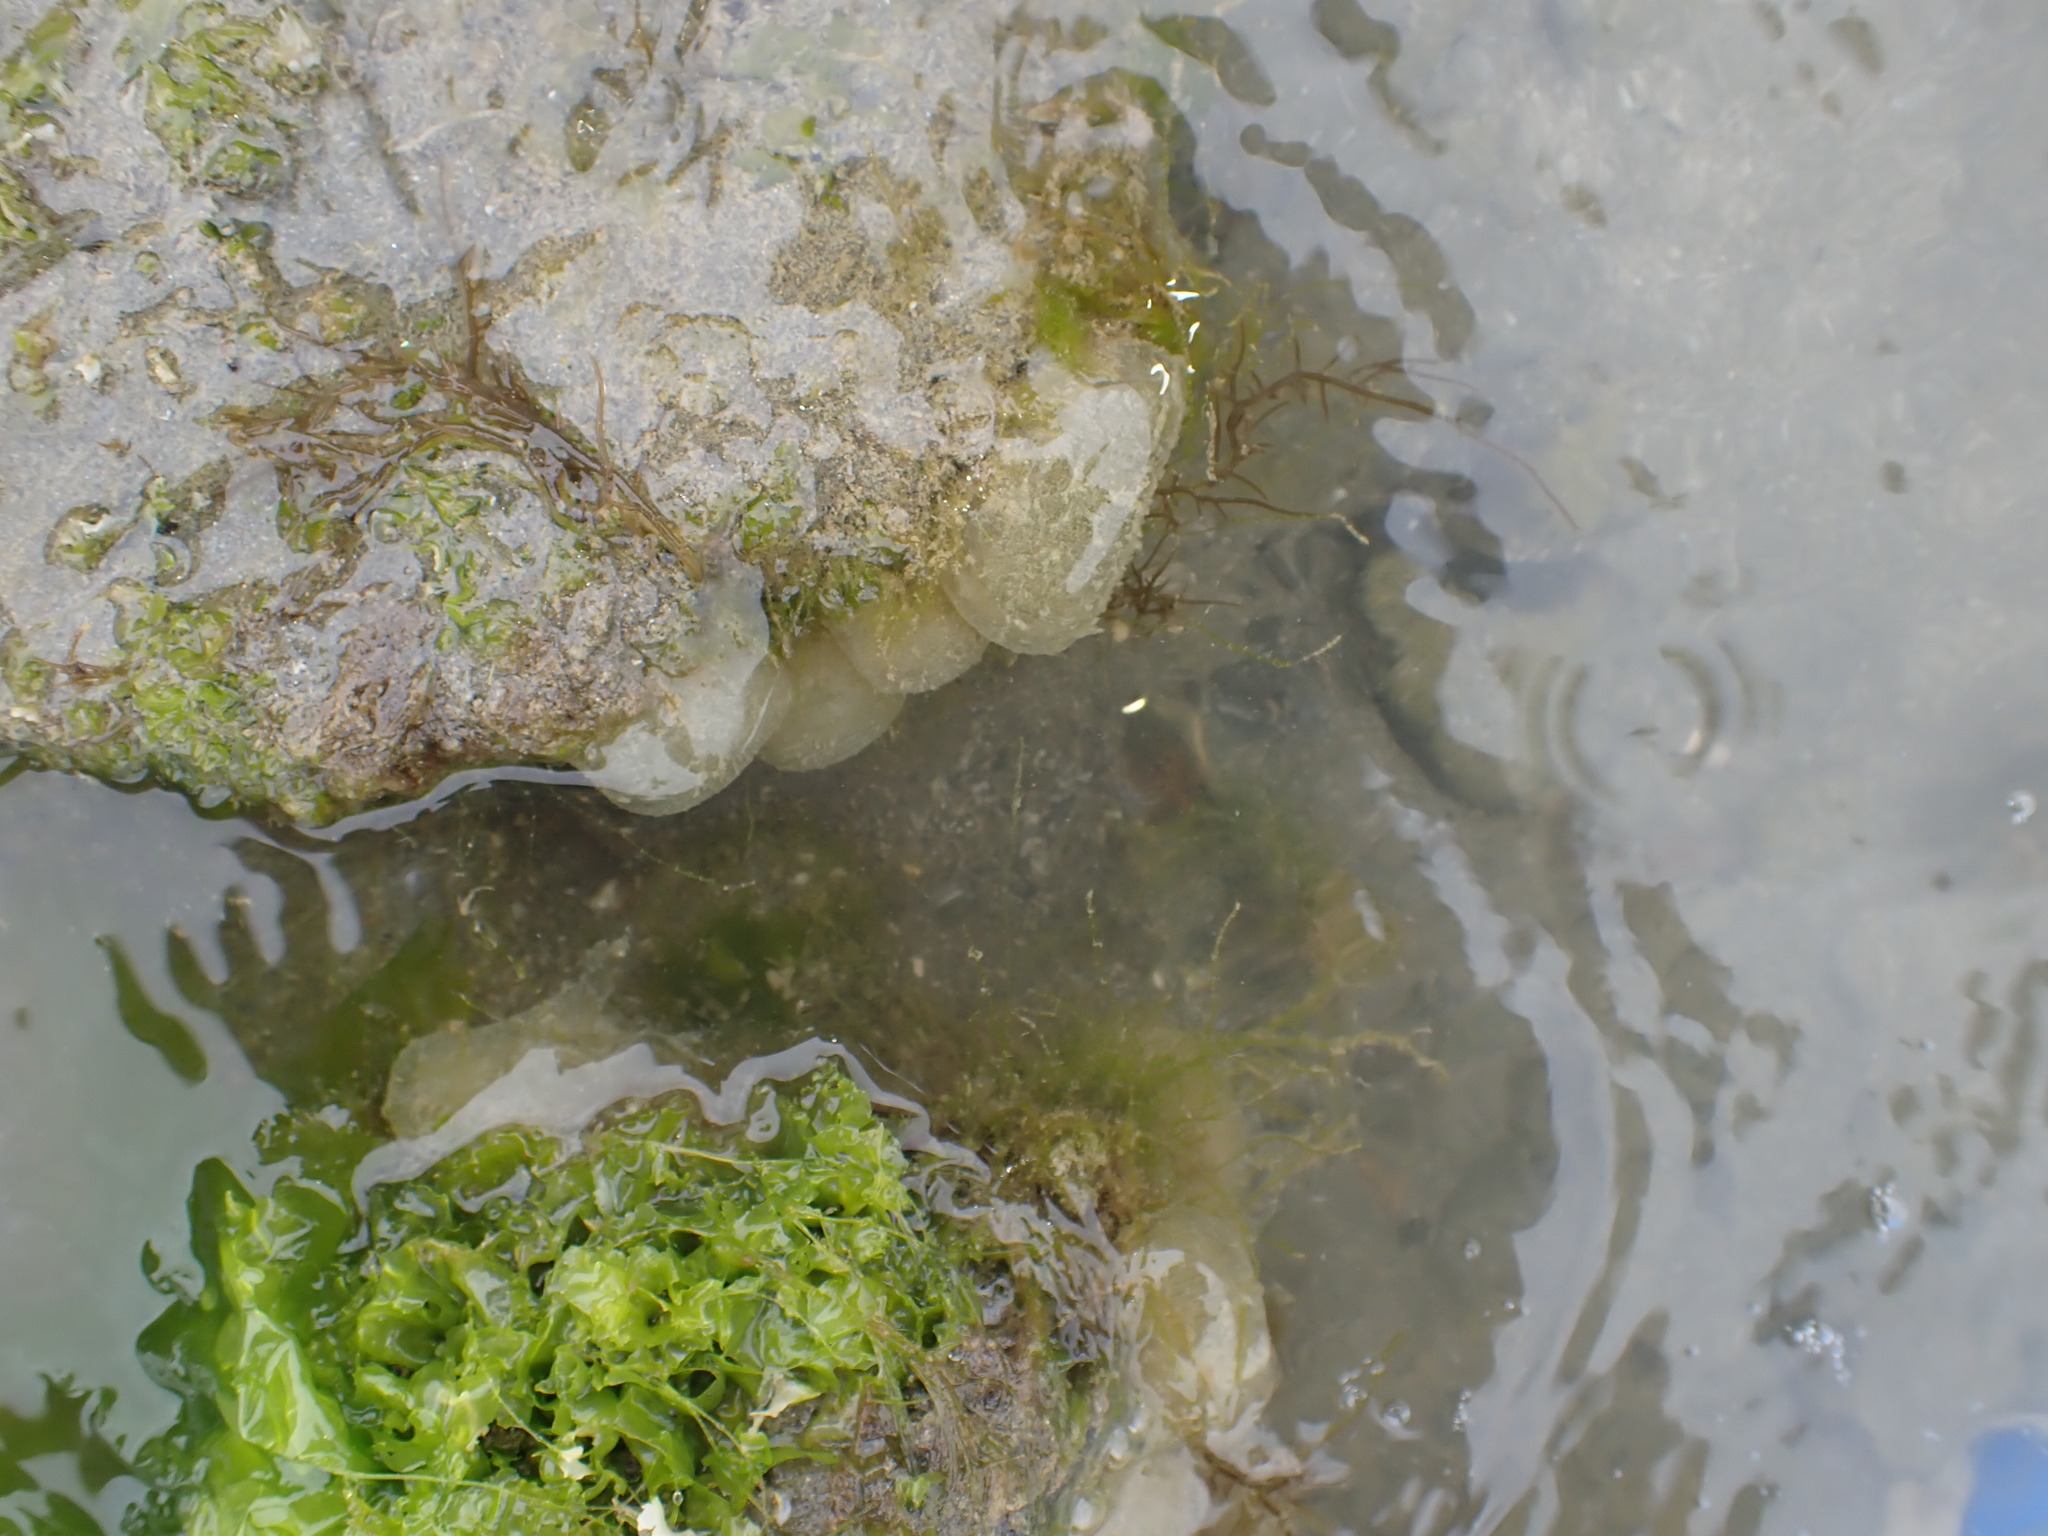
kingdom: Animalia
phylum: Mollusca
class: Gastropoda
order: Cephalaspidea
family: Haminoeidae
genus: Papawera
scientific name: Papawera zelandiae
